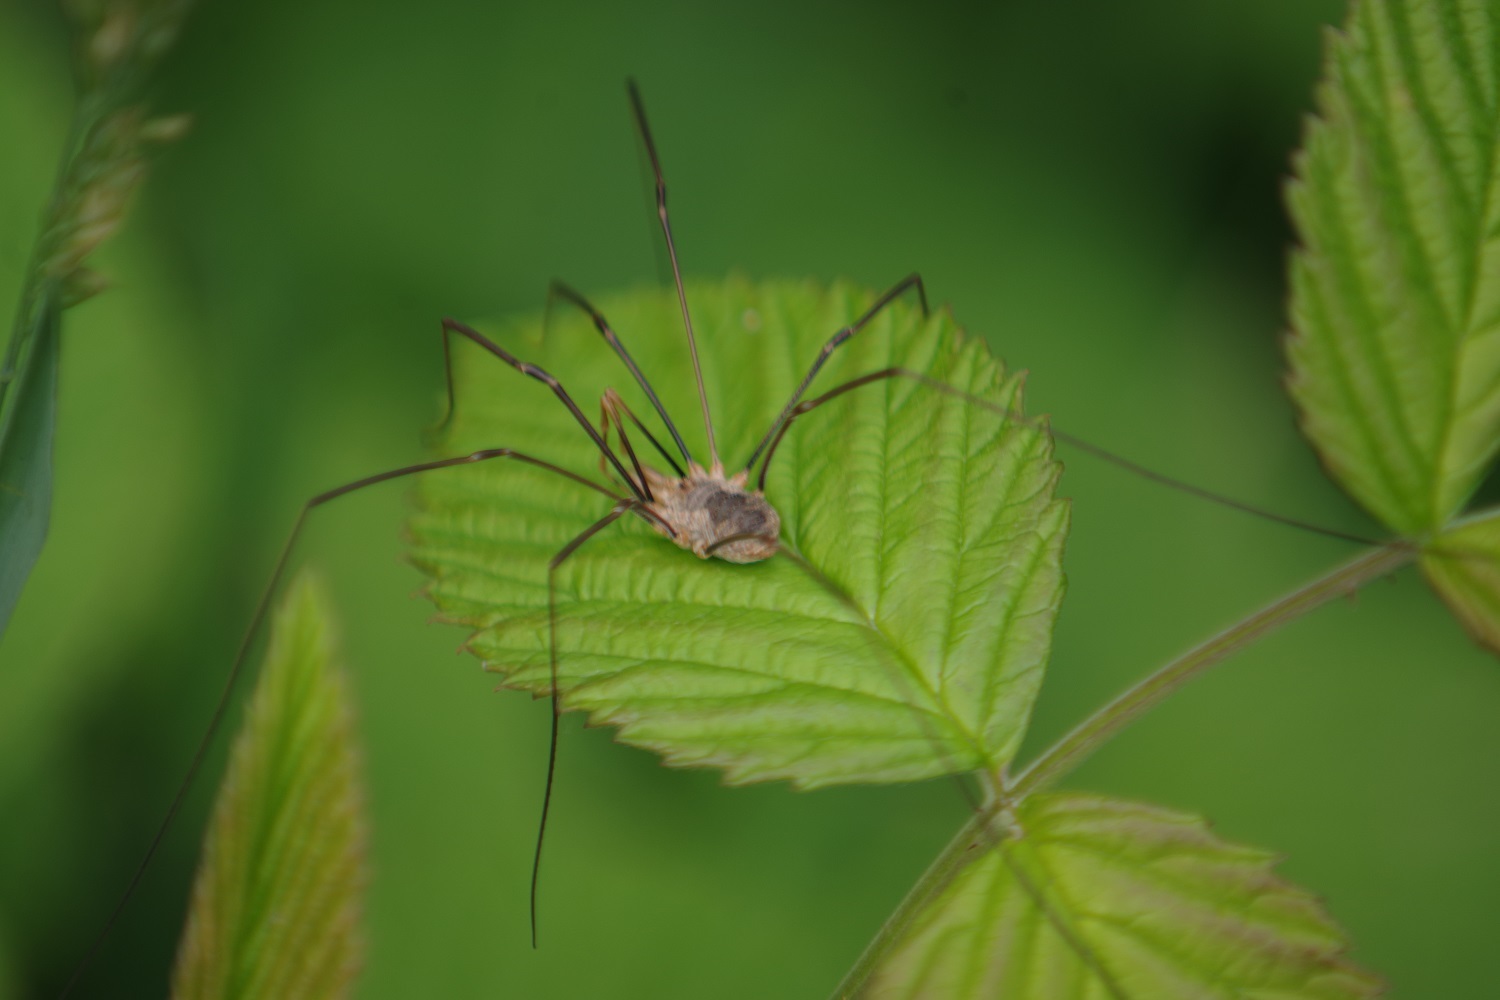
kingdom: Animalia
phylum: Arthropoda
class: Arachnida
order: Opiliones
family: Phalangiidae
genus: Phalangium
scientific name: Phalangium opilio
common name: Daddy longleg
